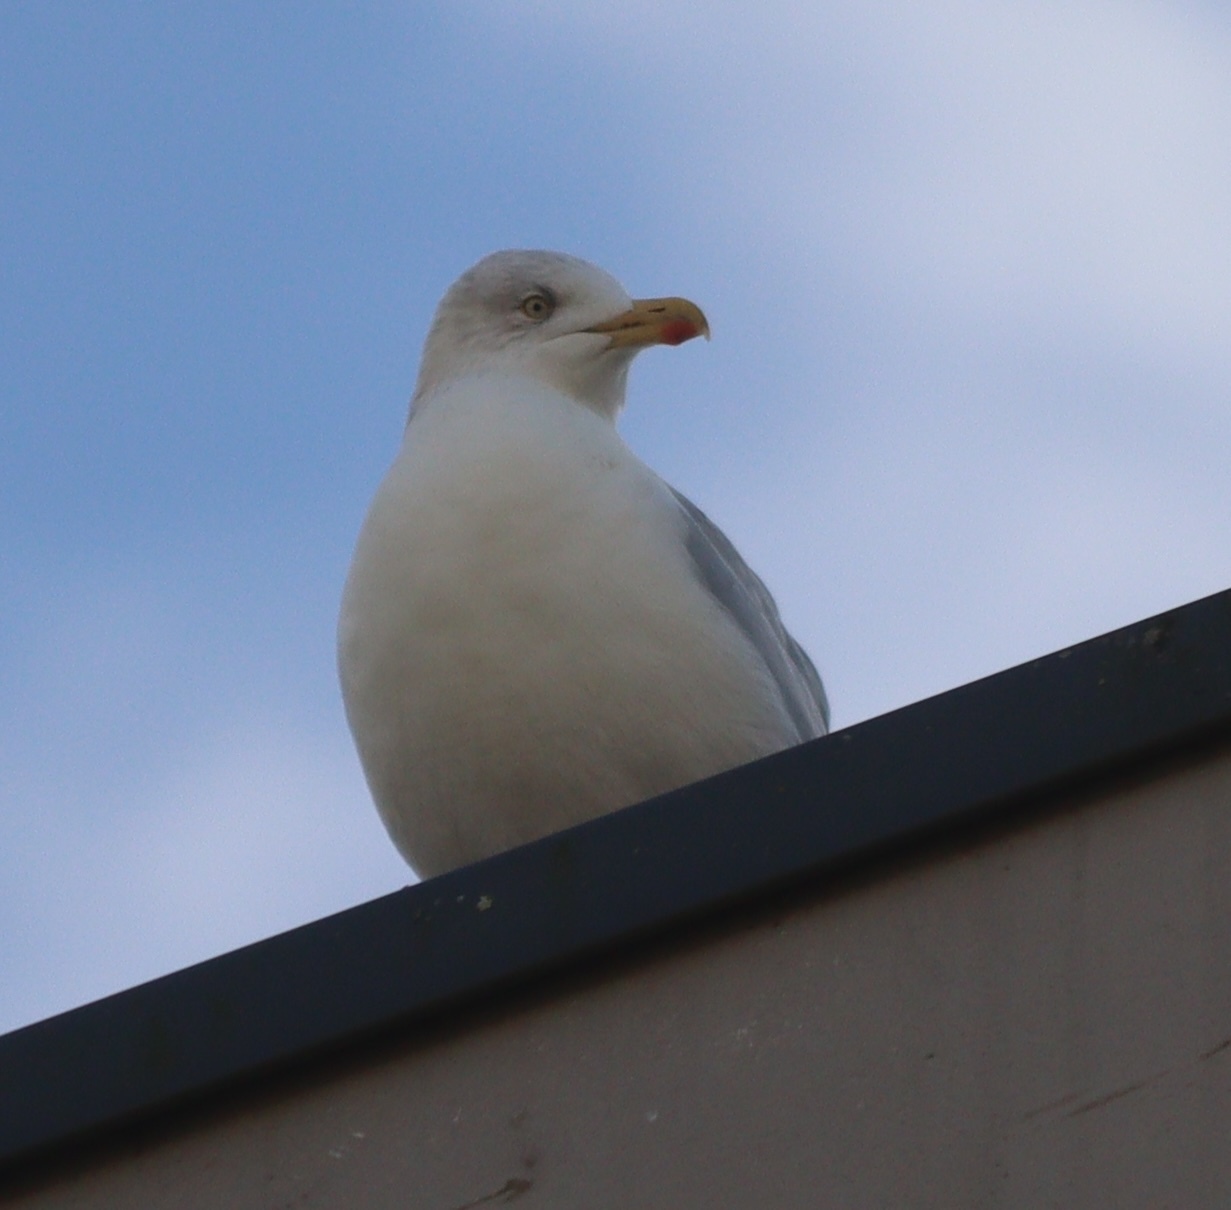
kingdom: Animalia
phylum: Chordata
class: Aves
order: Charadriiformes
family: Laridae
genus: Larus
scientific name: Larus argentatus
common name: Herring gull
